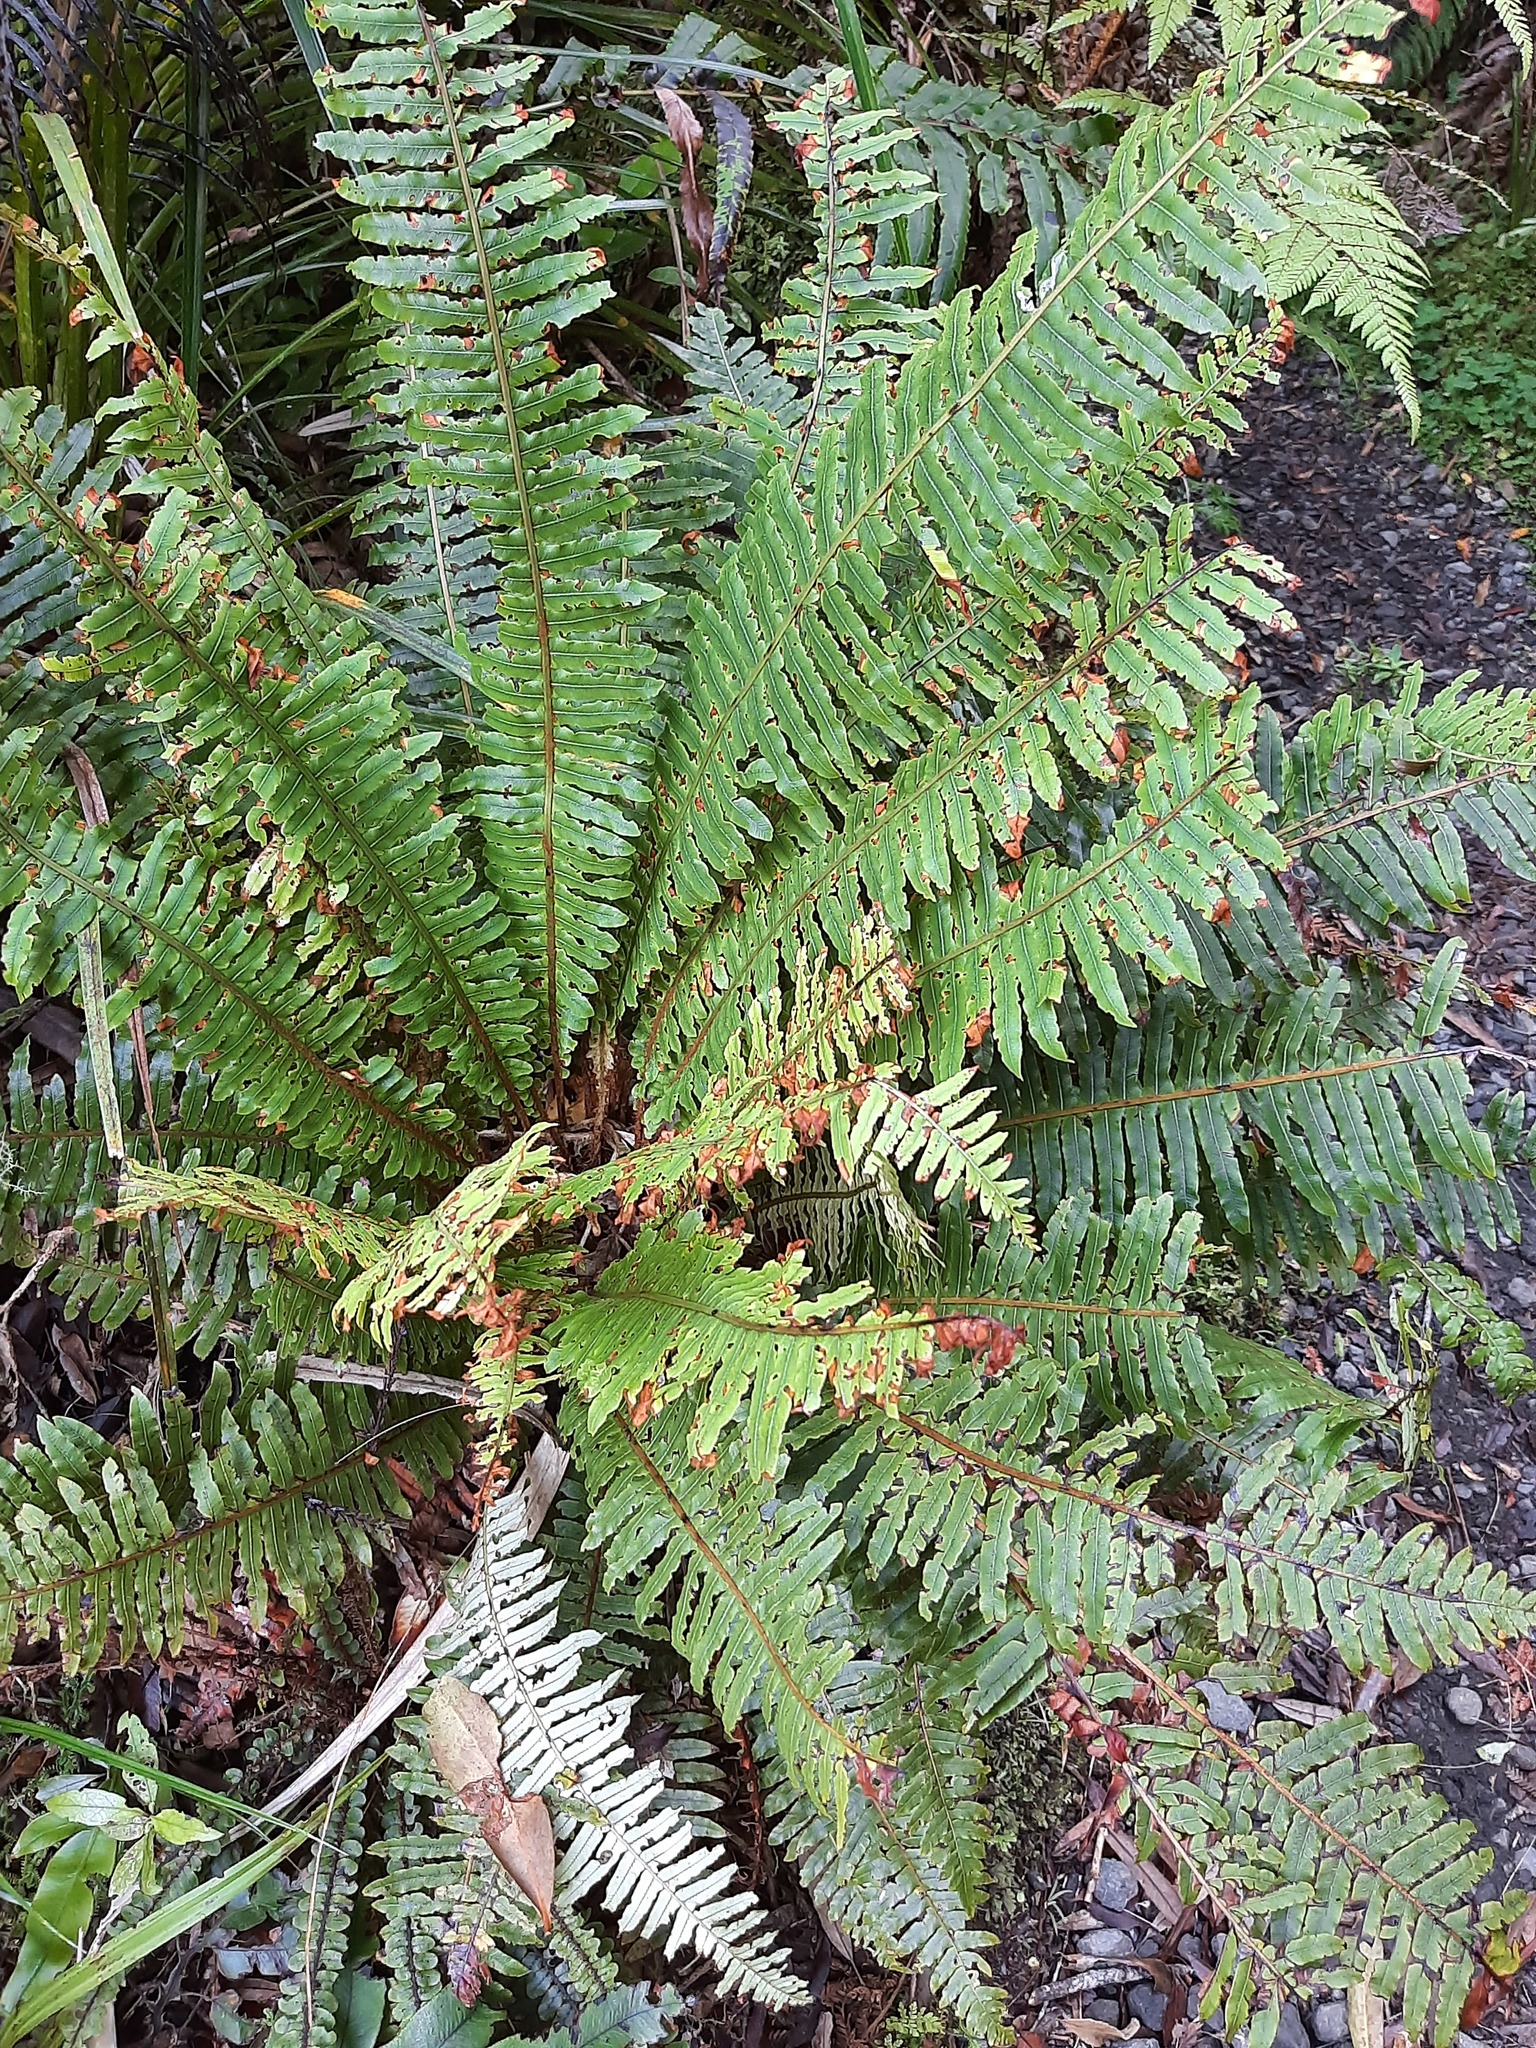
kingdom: Plantae
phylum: Tracheophyta
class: Polypodiopsida
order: Polypodiales
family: Blechnaceae
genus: Lomaria
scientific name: Lomaria discolor
